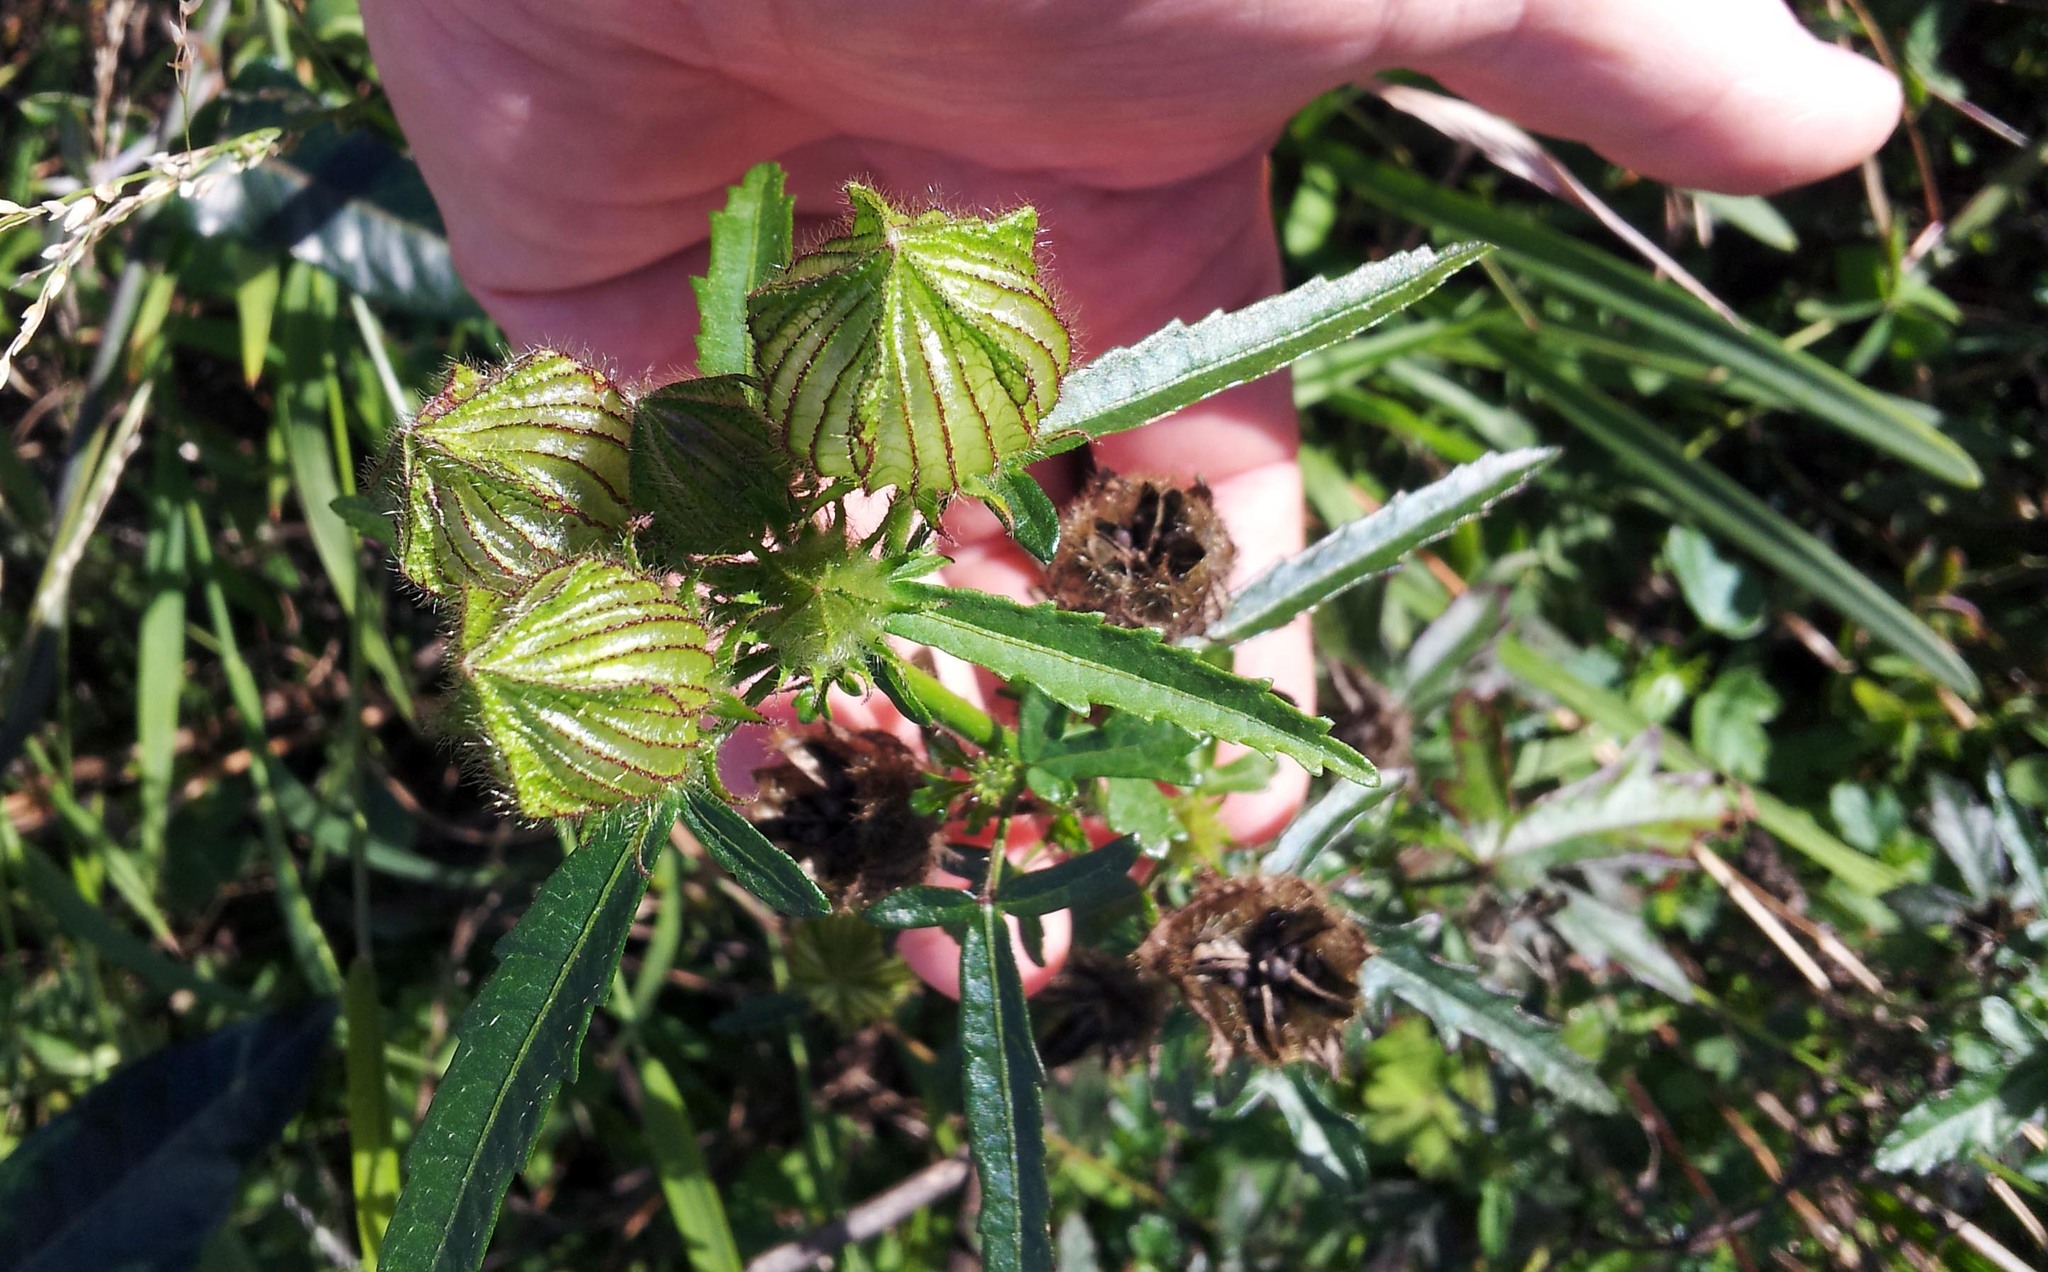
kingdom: Plantae
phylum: Tracheophyta
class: Magnoliopsida
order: Malvales
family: Malvaceae
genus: Hibiscus
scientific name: Hibiscus trionum
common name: Bladder ketmia
